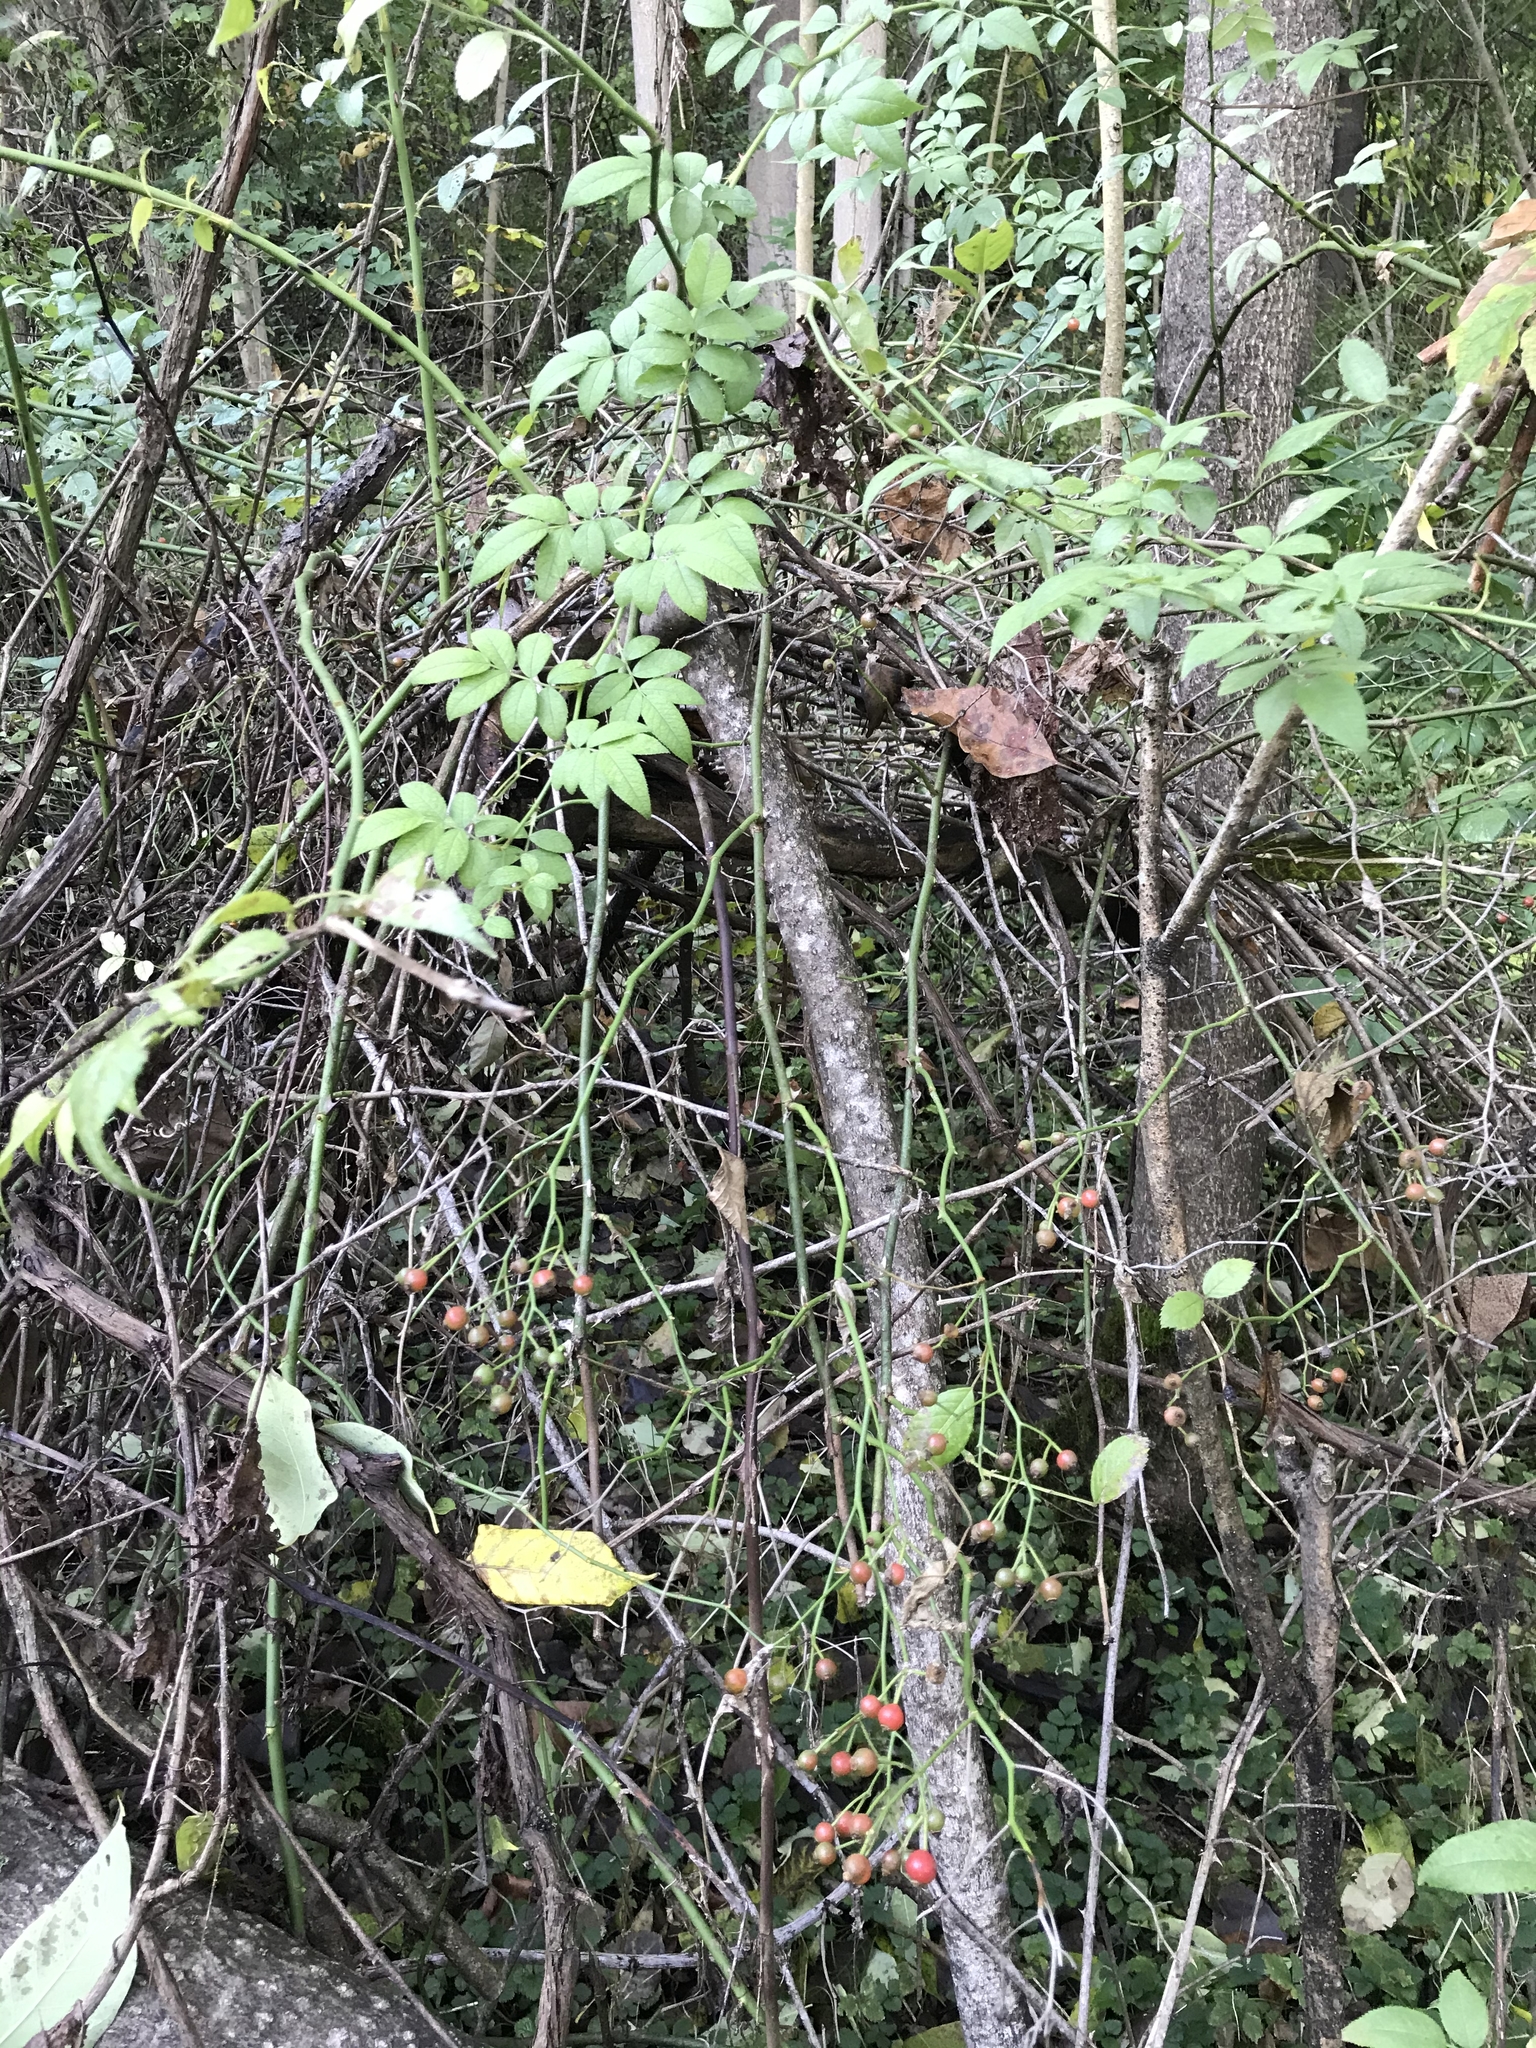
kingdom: Plantae
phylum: Tracheophyta
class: Magnoliopsida
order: Rosales
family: Rosaceae
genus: Rosa
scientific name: Rosa multiflora
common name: Multiflora rose
